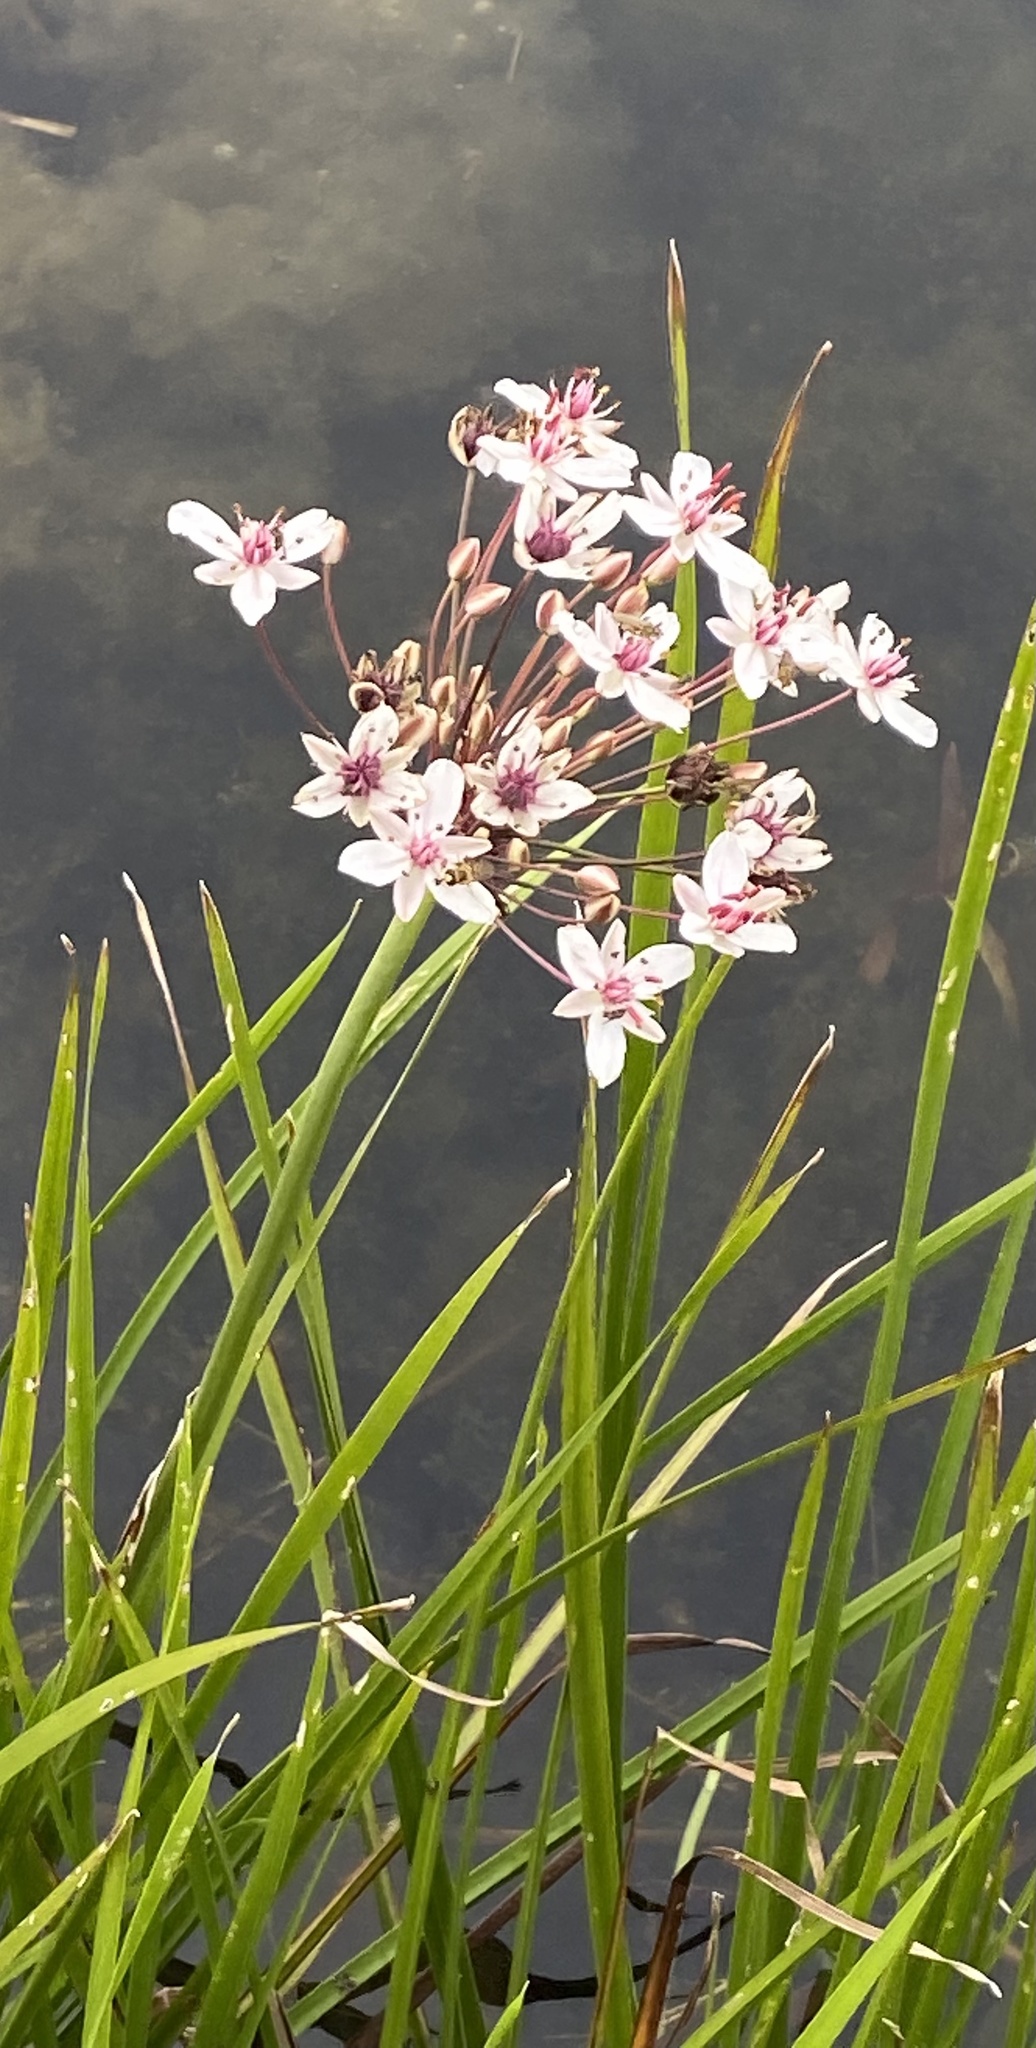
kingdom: Plantae
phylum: Tracheophyta
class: Liliopsida
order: Alismatales
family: Butomaceae
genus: Butomus
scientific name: Butomus umbellatus
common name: Flowering-rush
